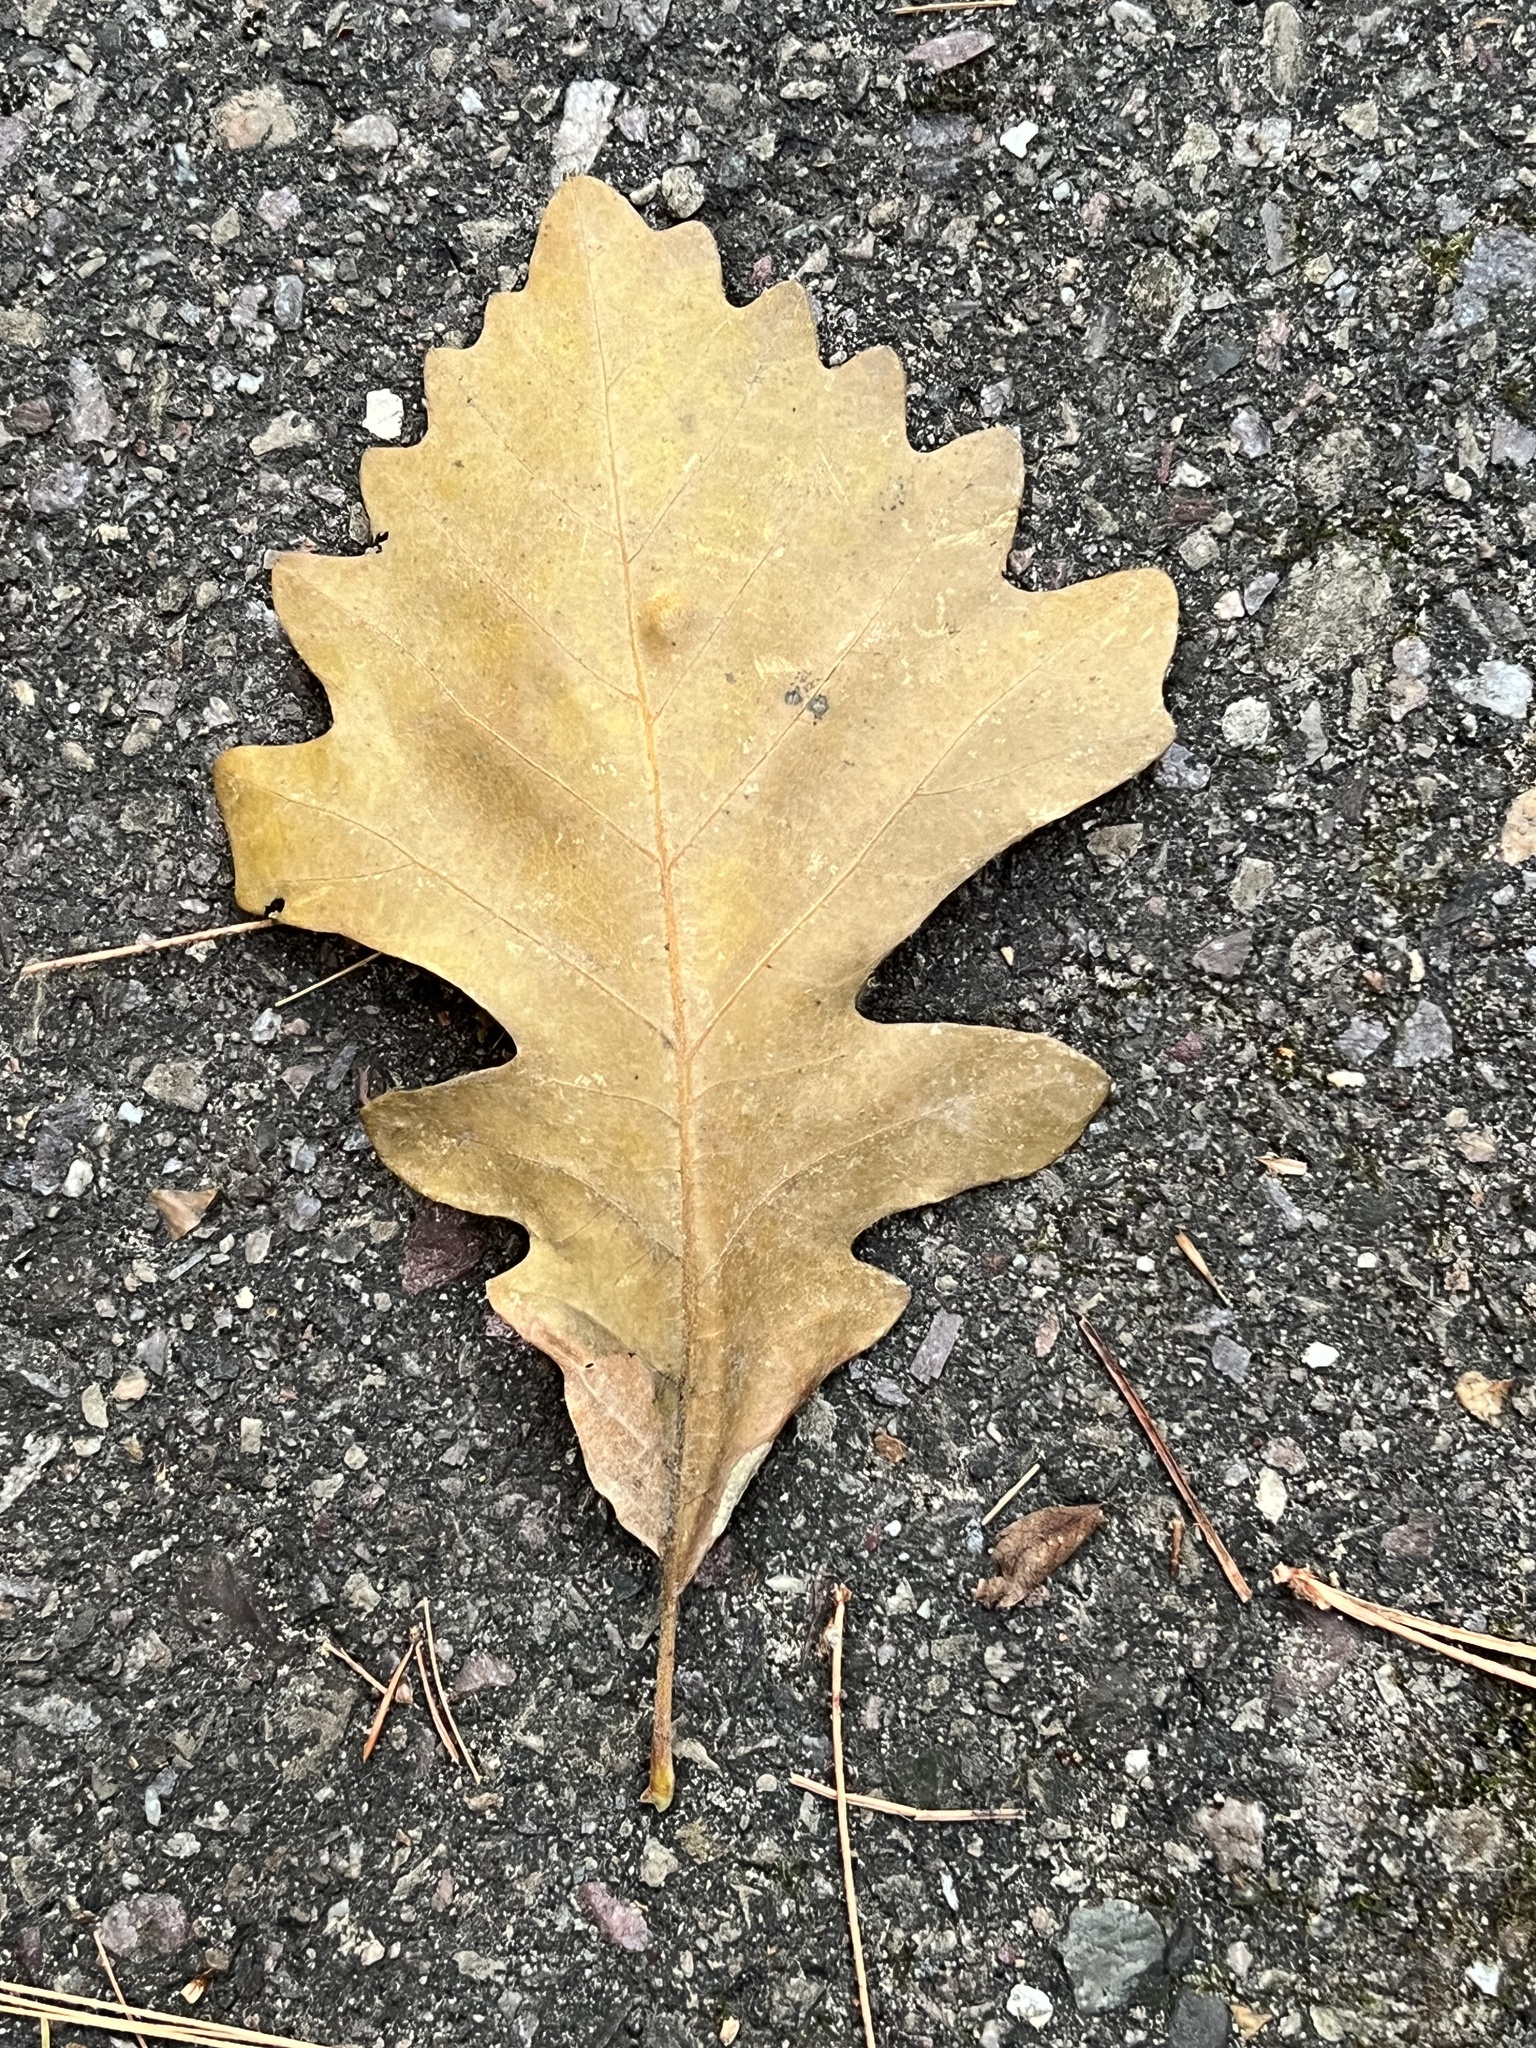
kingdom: Plantae
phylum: Tracheophyta
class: Magnoliopsida
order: Fagales
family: Fagaceae
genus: Quercus
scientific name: Quercus macrocarpa
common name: Bur oak
